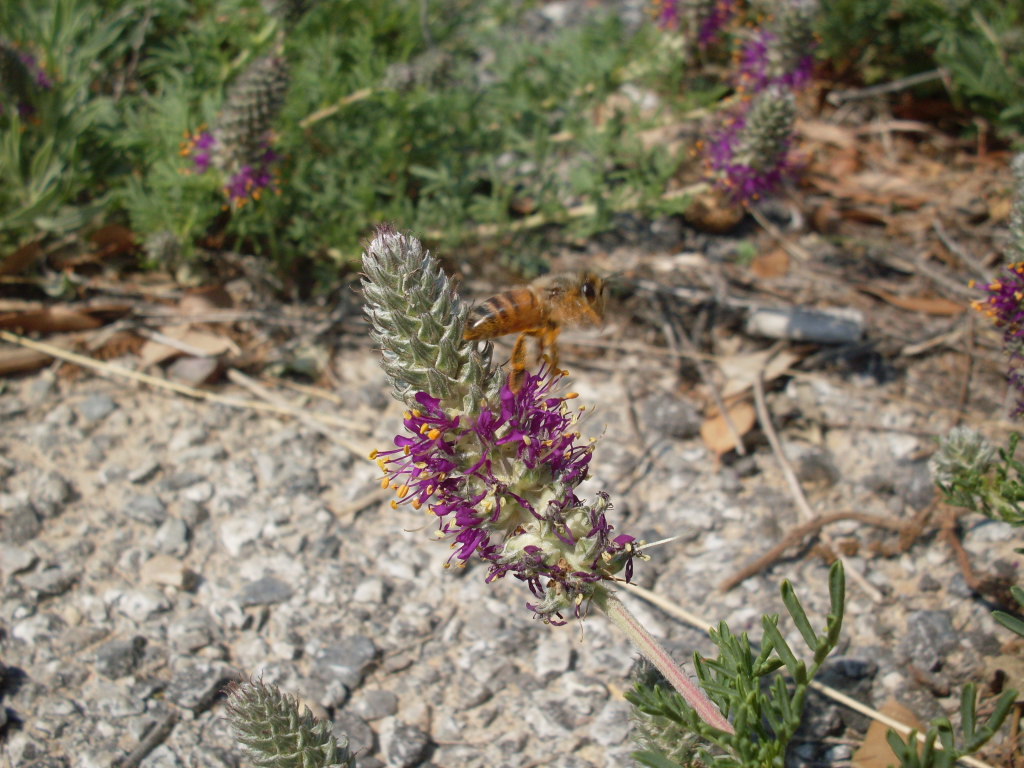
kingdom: Animalia
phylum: Arthropoda
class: Insecta
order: Hymenoptera
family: Apidae
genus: Apis
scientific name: Apis mellifera
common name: Honey bee
